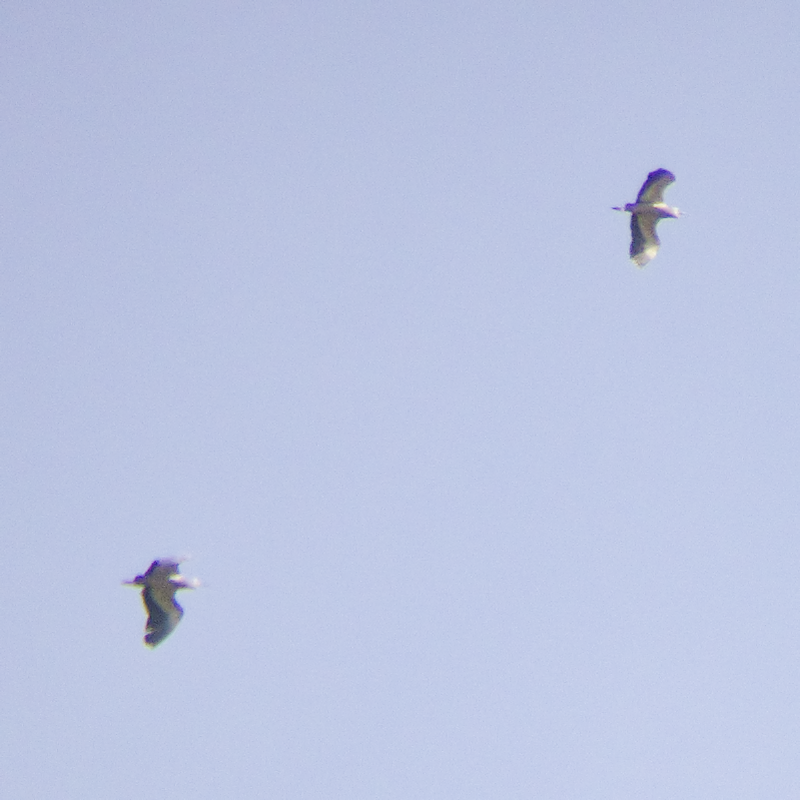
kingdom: Animalia
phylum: Chordata
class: Aves
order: Pelecaniformes
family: Ardeidae
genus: Egretta
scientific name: Egretta novaehollandiae
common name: White-faced heron
